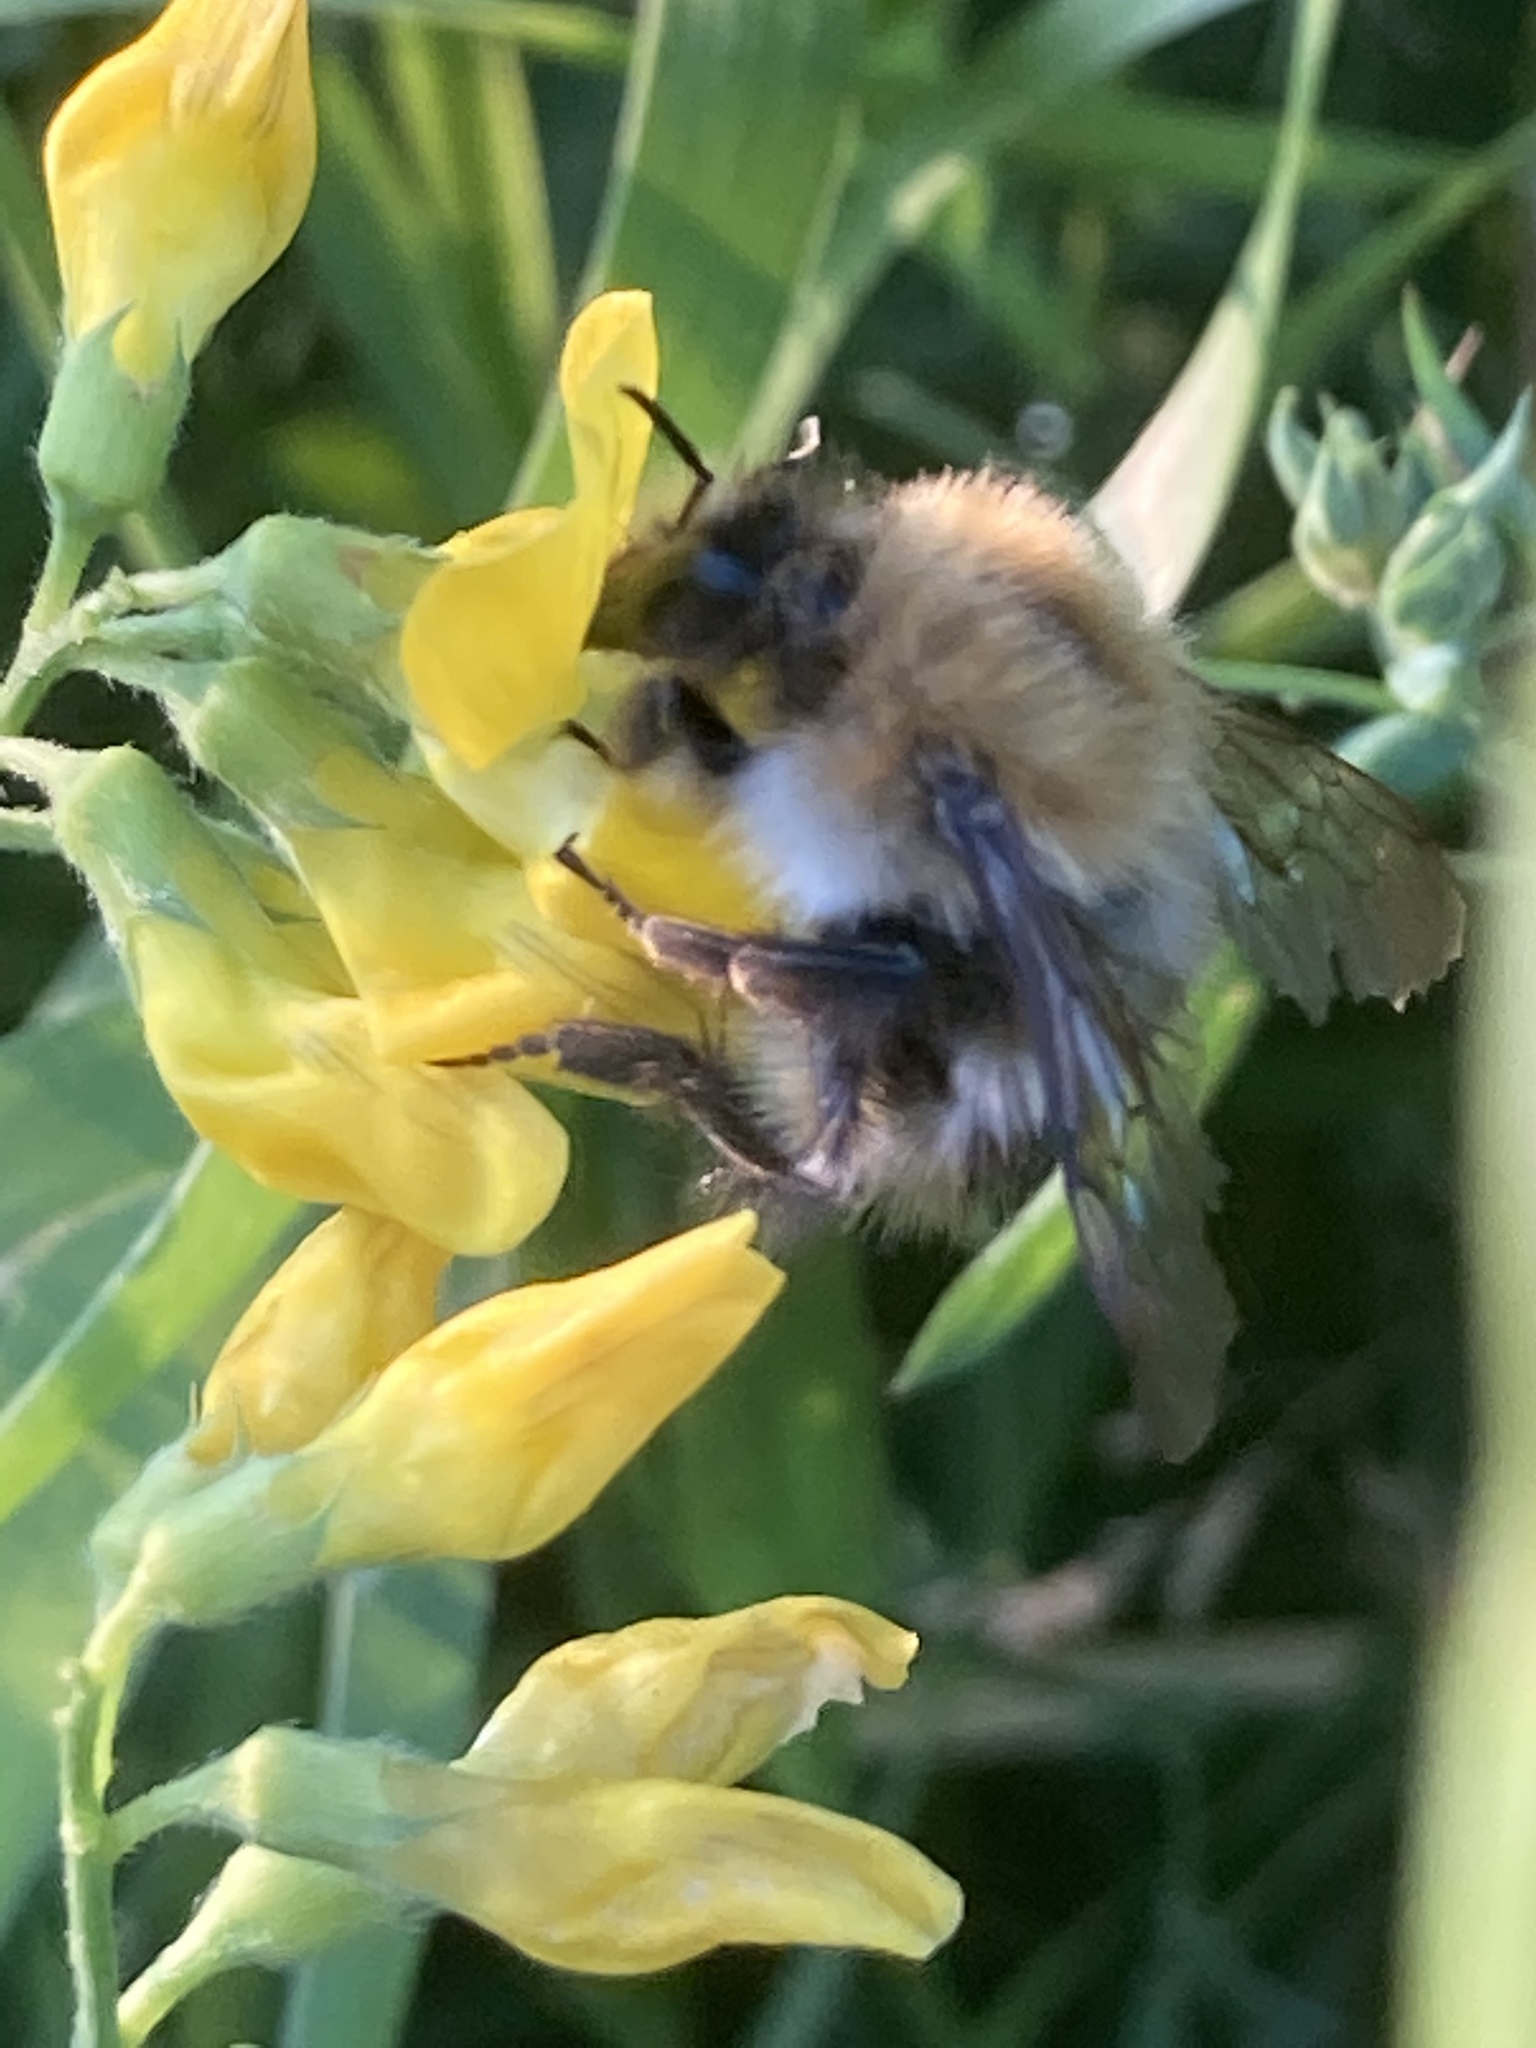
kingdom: Animalia
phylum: Arthropoda
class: Insecta
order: Hymenoptera
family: Apidae
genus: Bombus
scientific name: Bombus pascuorum
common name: Common carder bee
